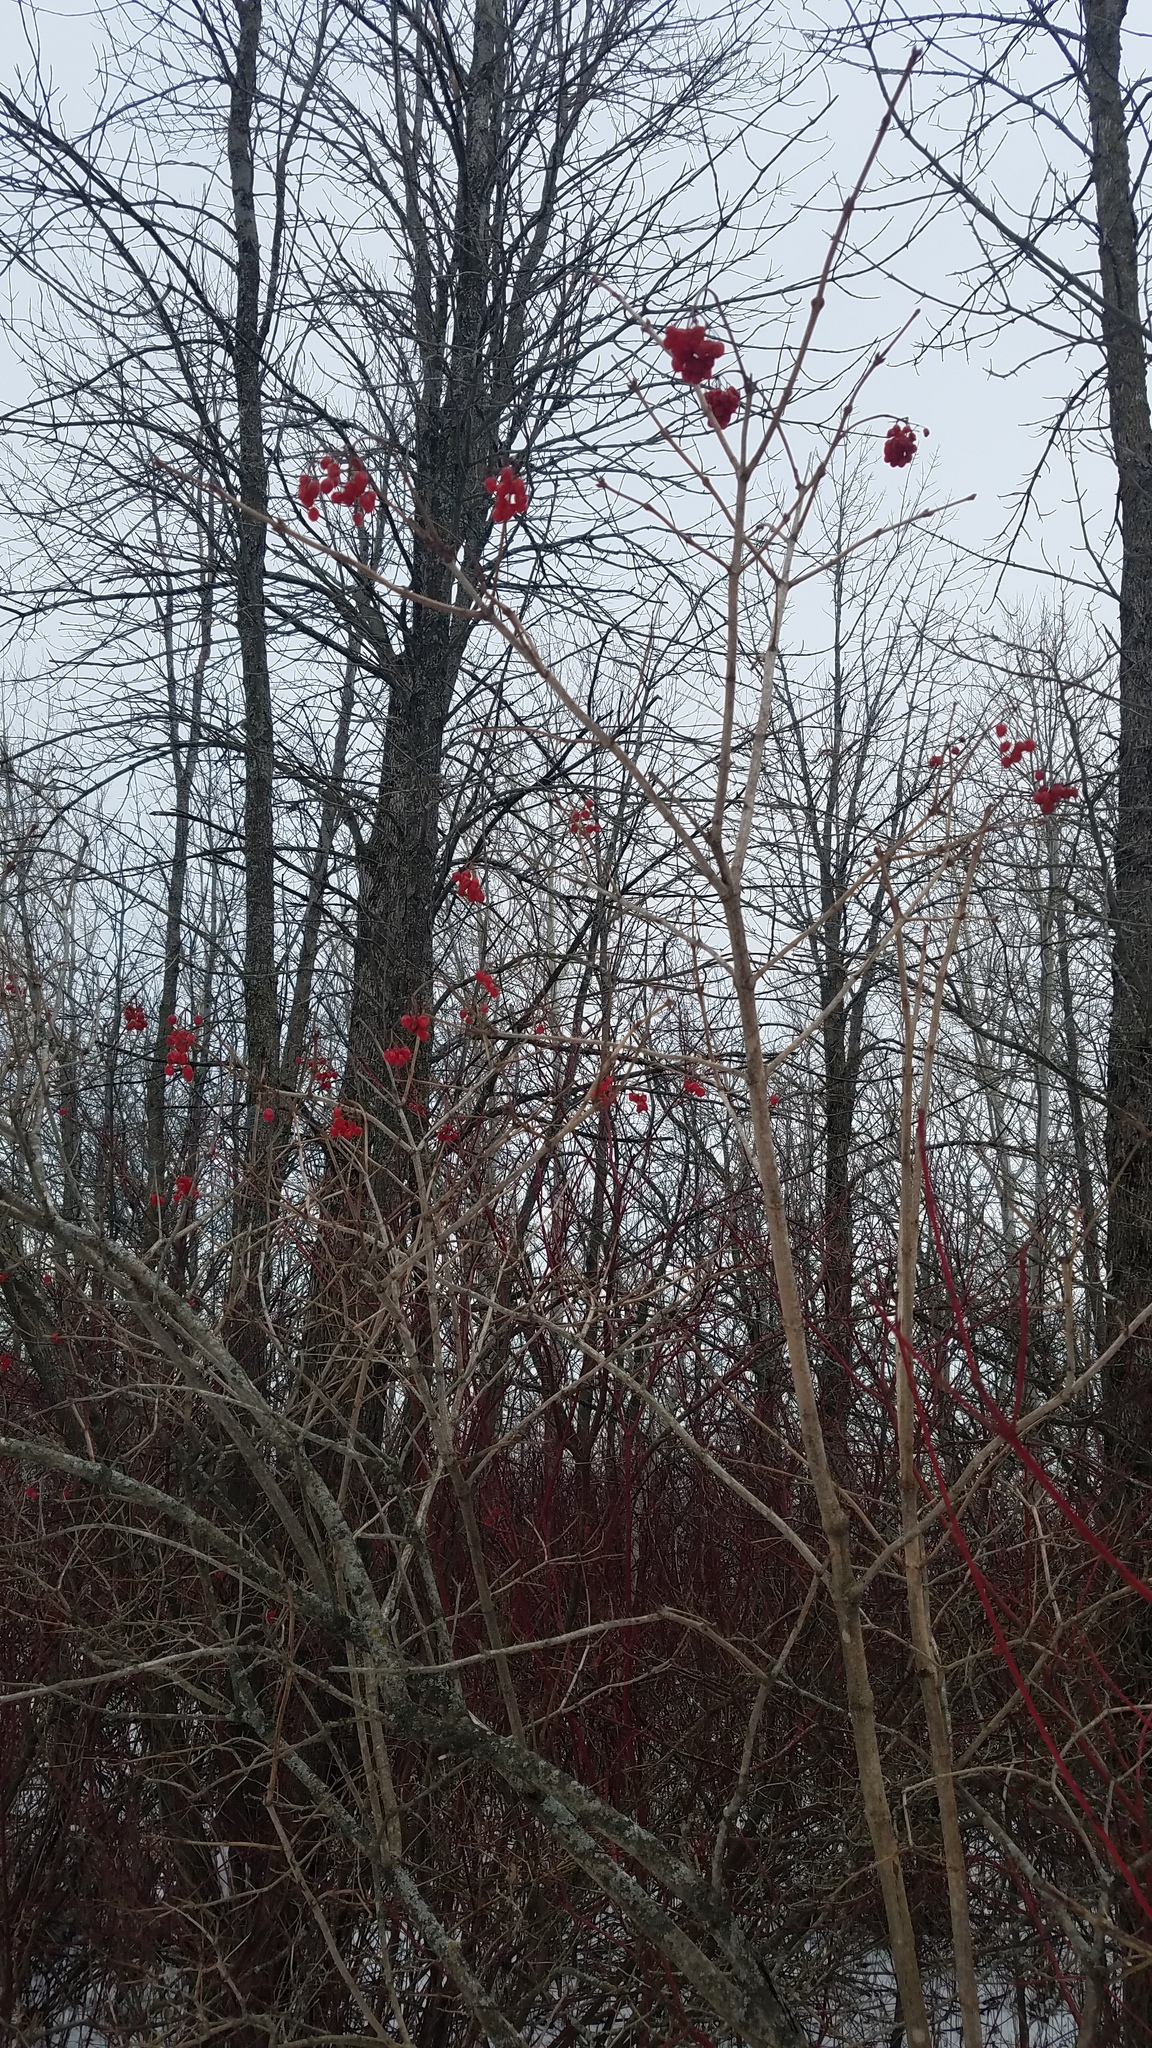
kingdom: Plantae
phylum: Tracheophyta
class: Magnoliopsida
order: Dipsacales
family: Viburnaceae
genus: Viburnum
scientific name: Viburnum opulus
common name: Guelder-rose
